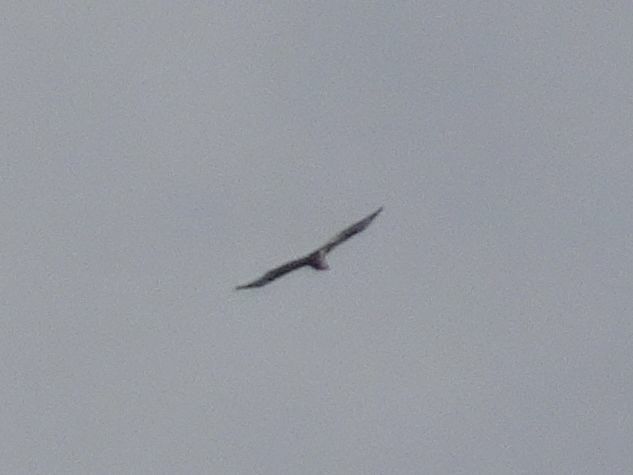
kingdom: Animalia
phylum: Chordata
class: Aves
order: Accipitriformes
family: Accipitridae
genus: Buteo
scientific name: Buteo buteo
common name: Common buzzard
